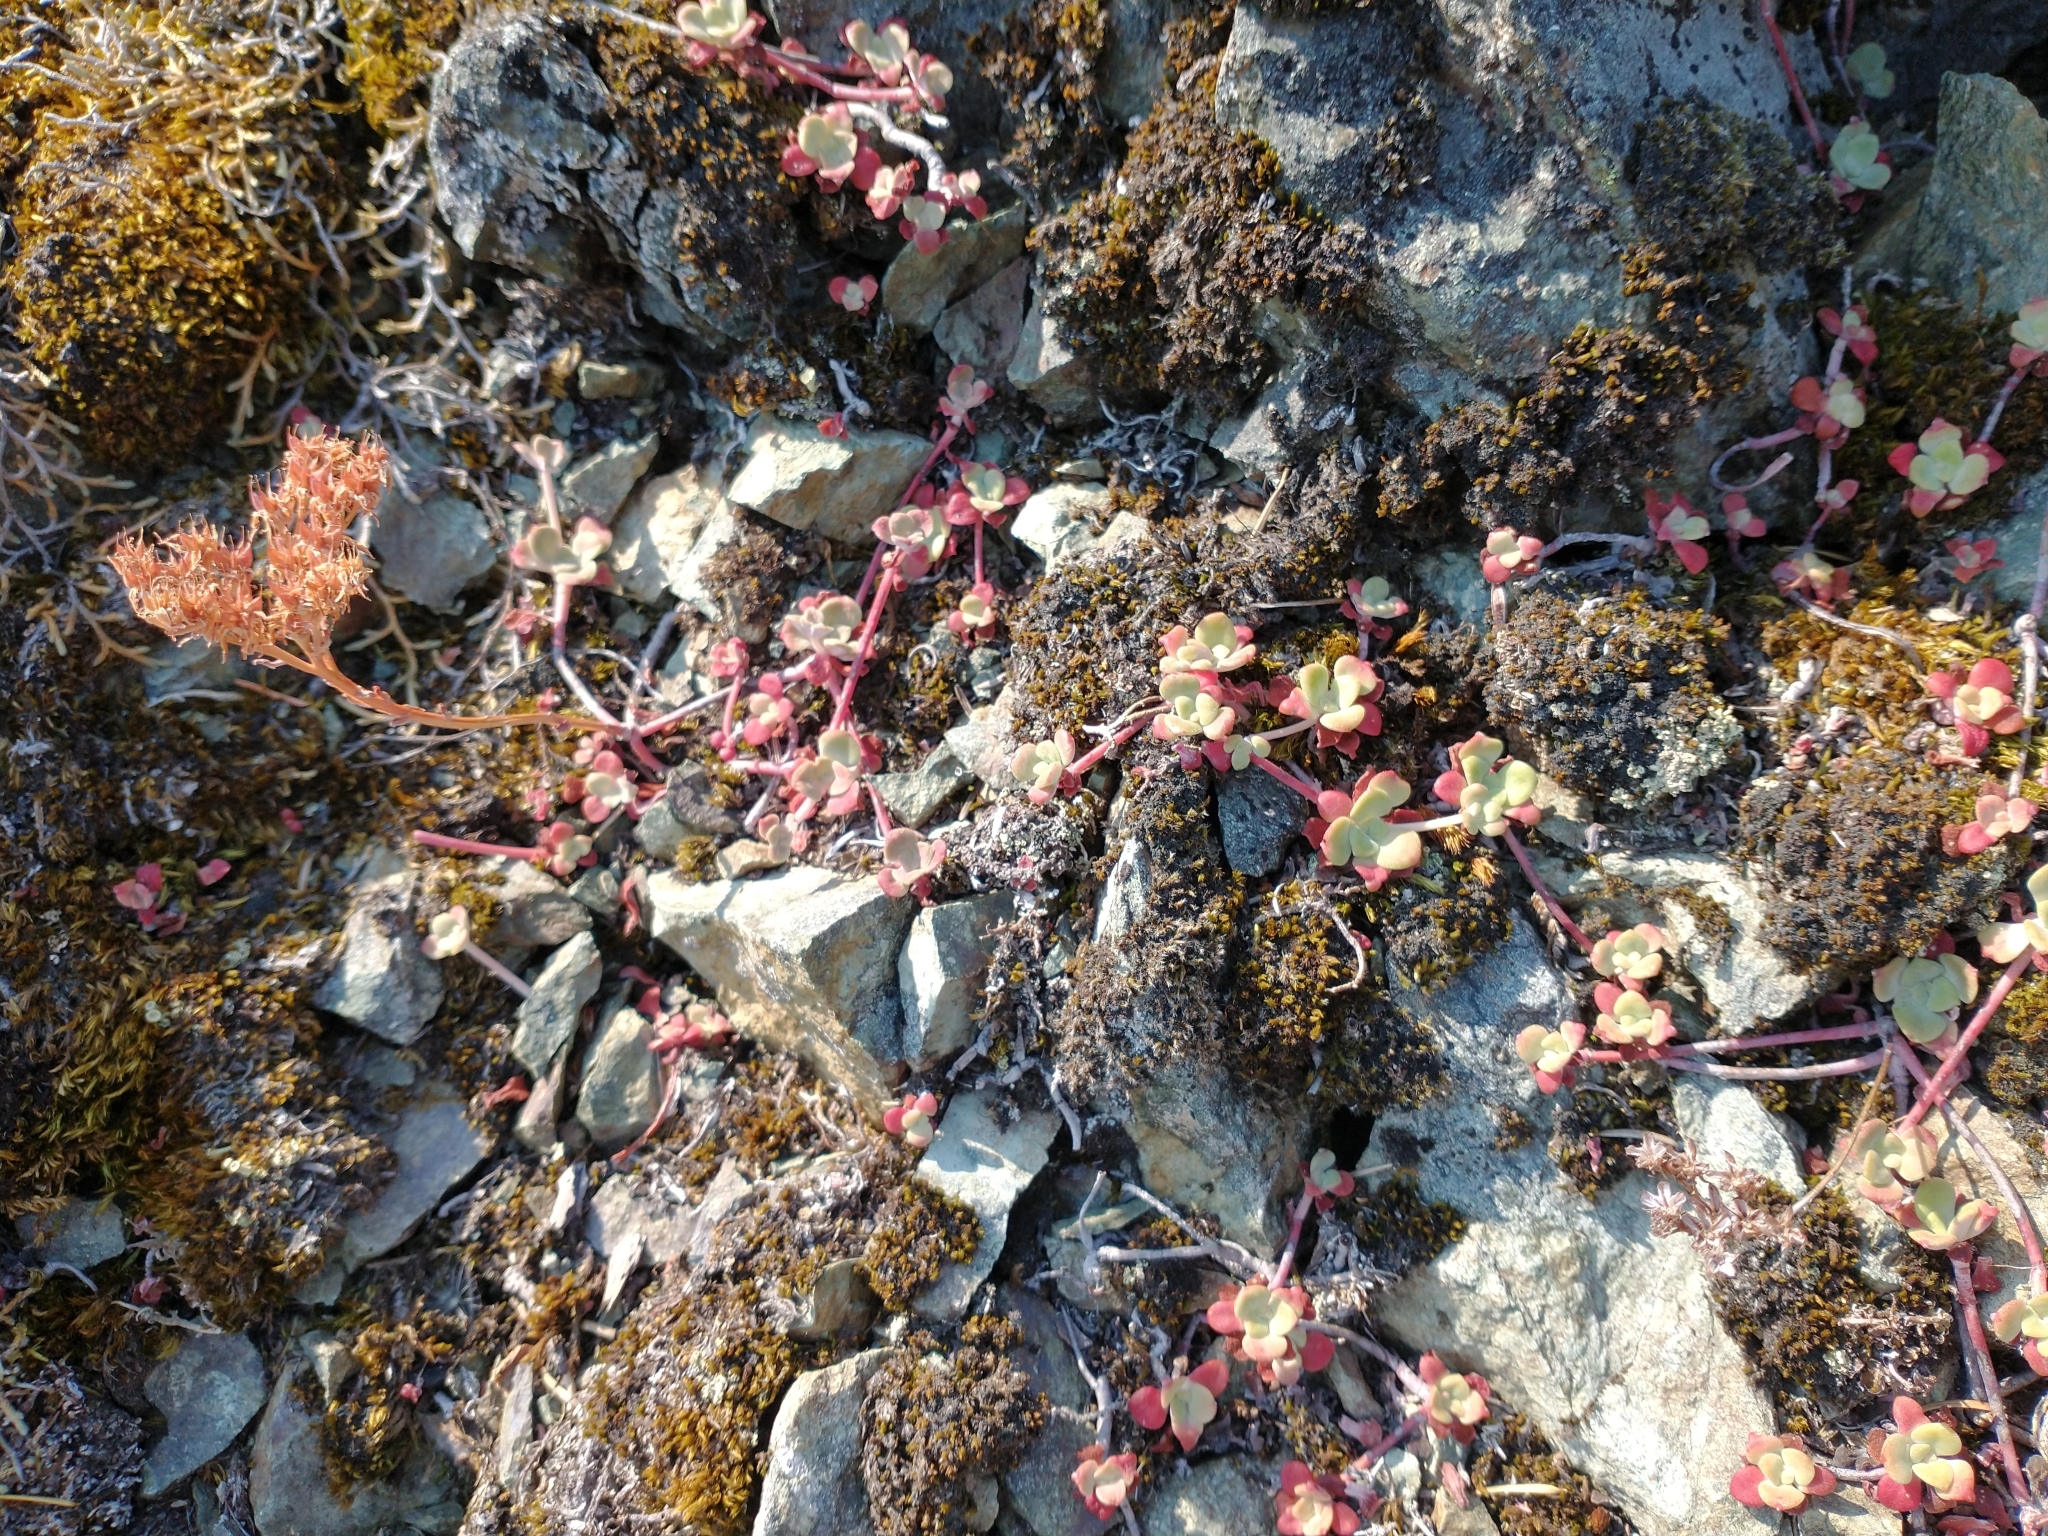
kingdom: Plantae
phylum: Tracheophyta
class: Magnoliopsida
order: Saxifragales
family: Crassulaceae
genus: Sedum
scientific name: Sedum spathulifolium
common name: Colorado stonecrop
